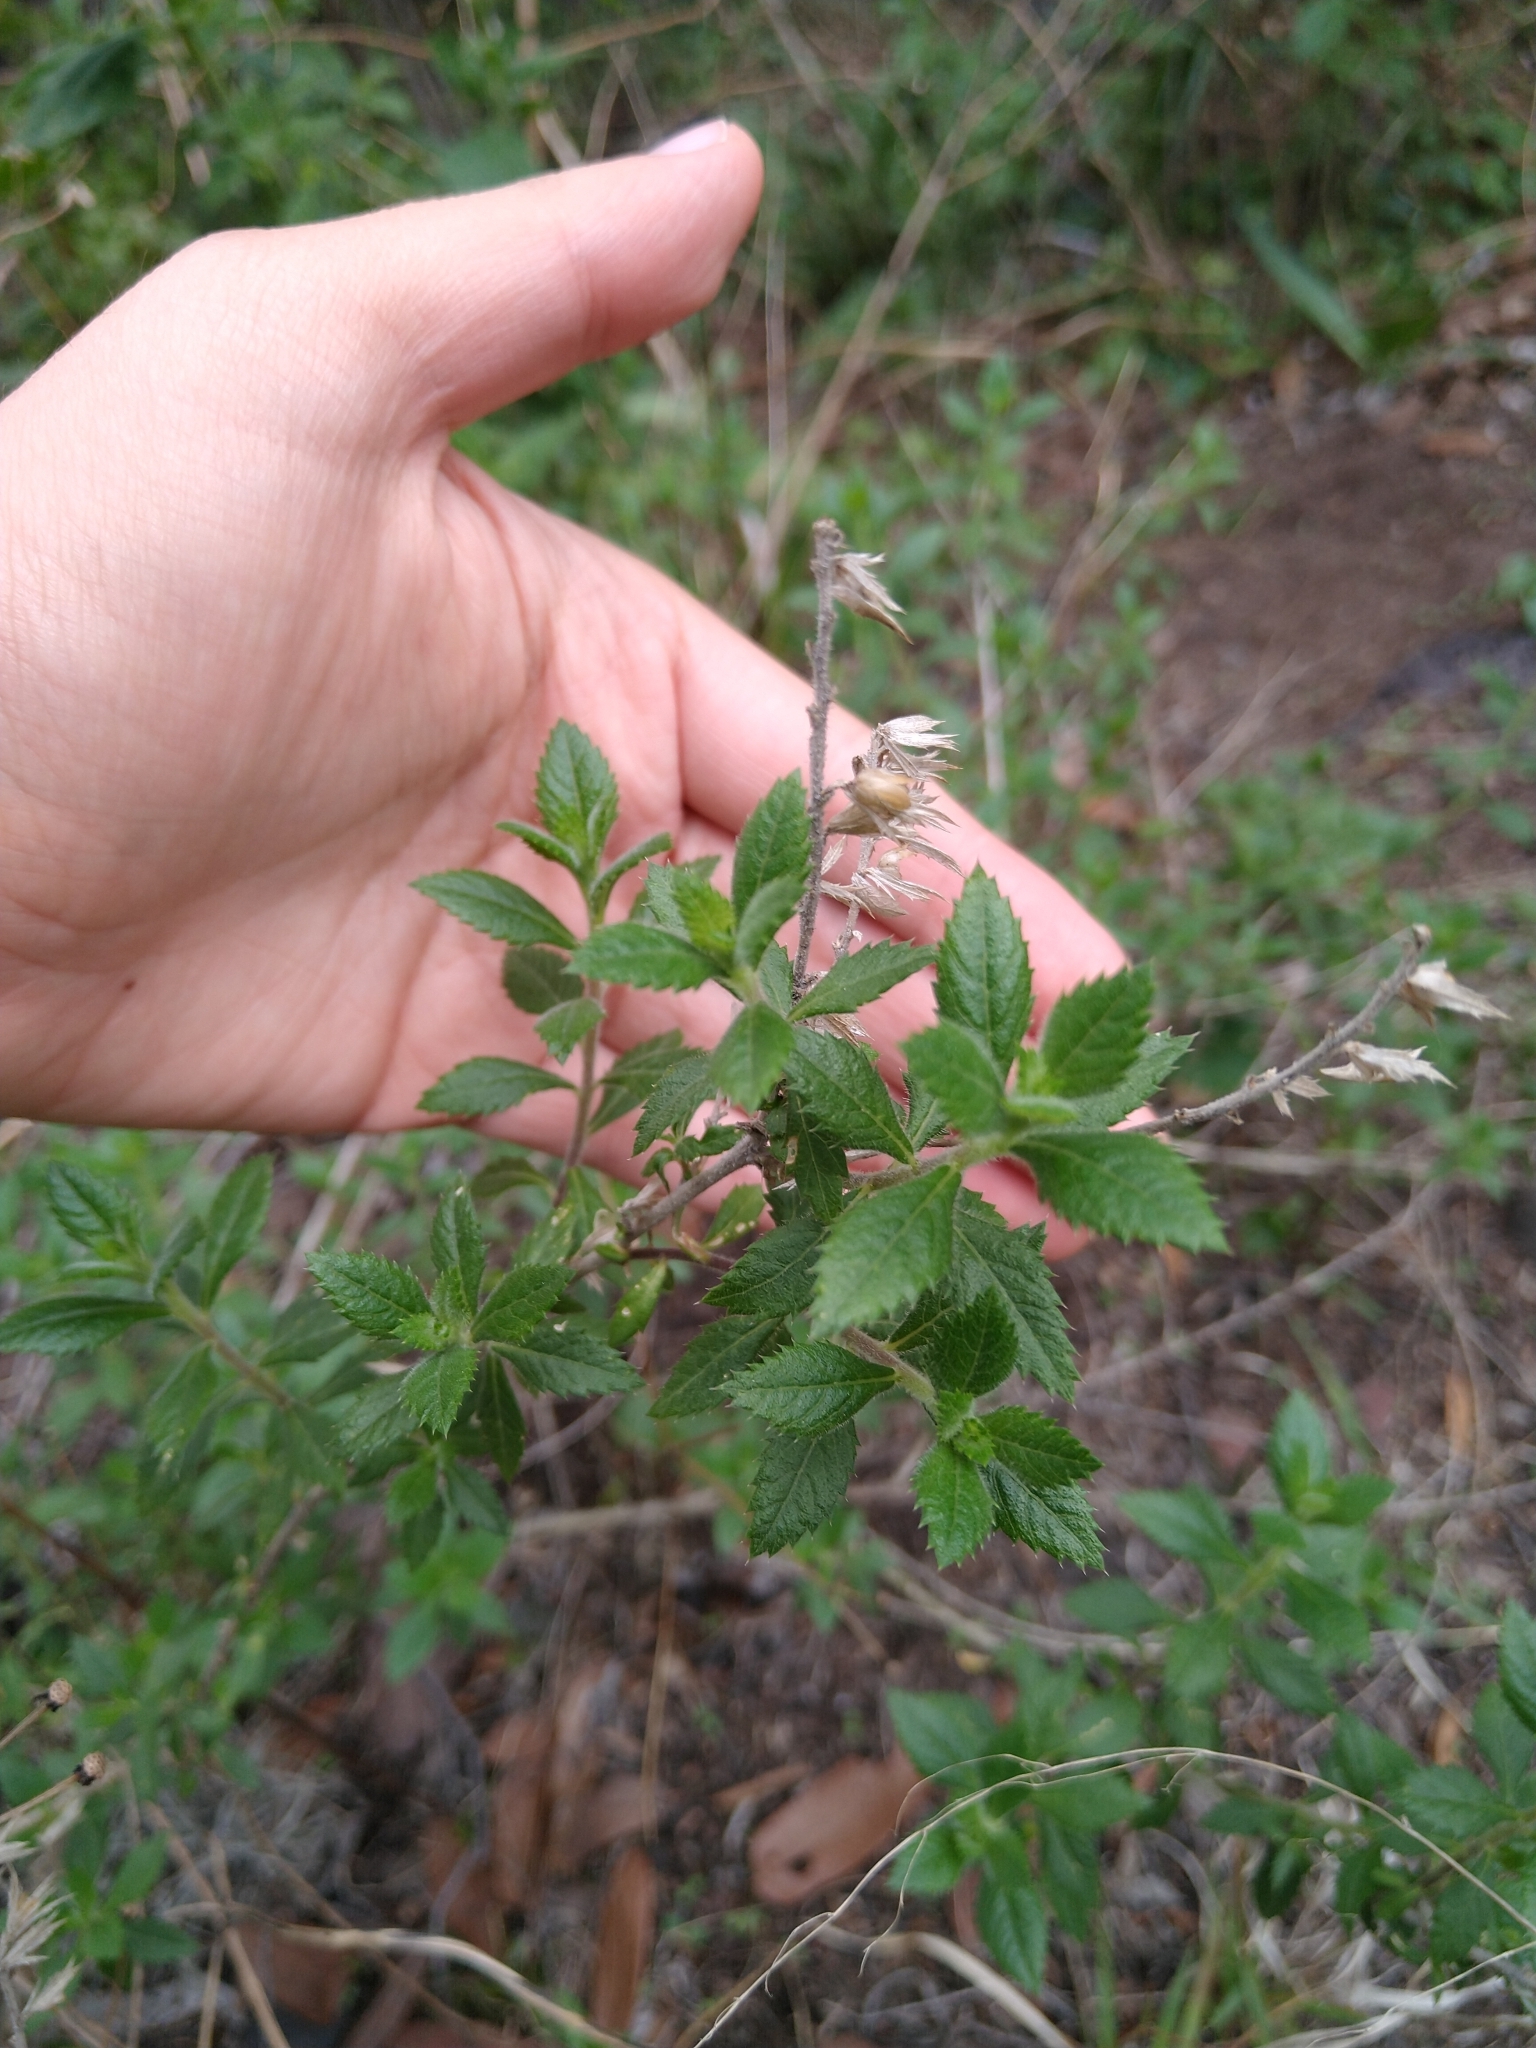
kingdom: Plantae
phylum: Tracheophyta
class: Magnoliopsida
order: Ericales
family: Polemoniaceae
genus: Loeselia
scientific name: Loeselia mexicana
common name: Mexican false calico
